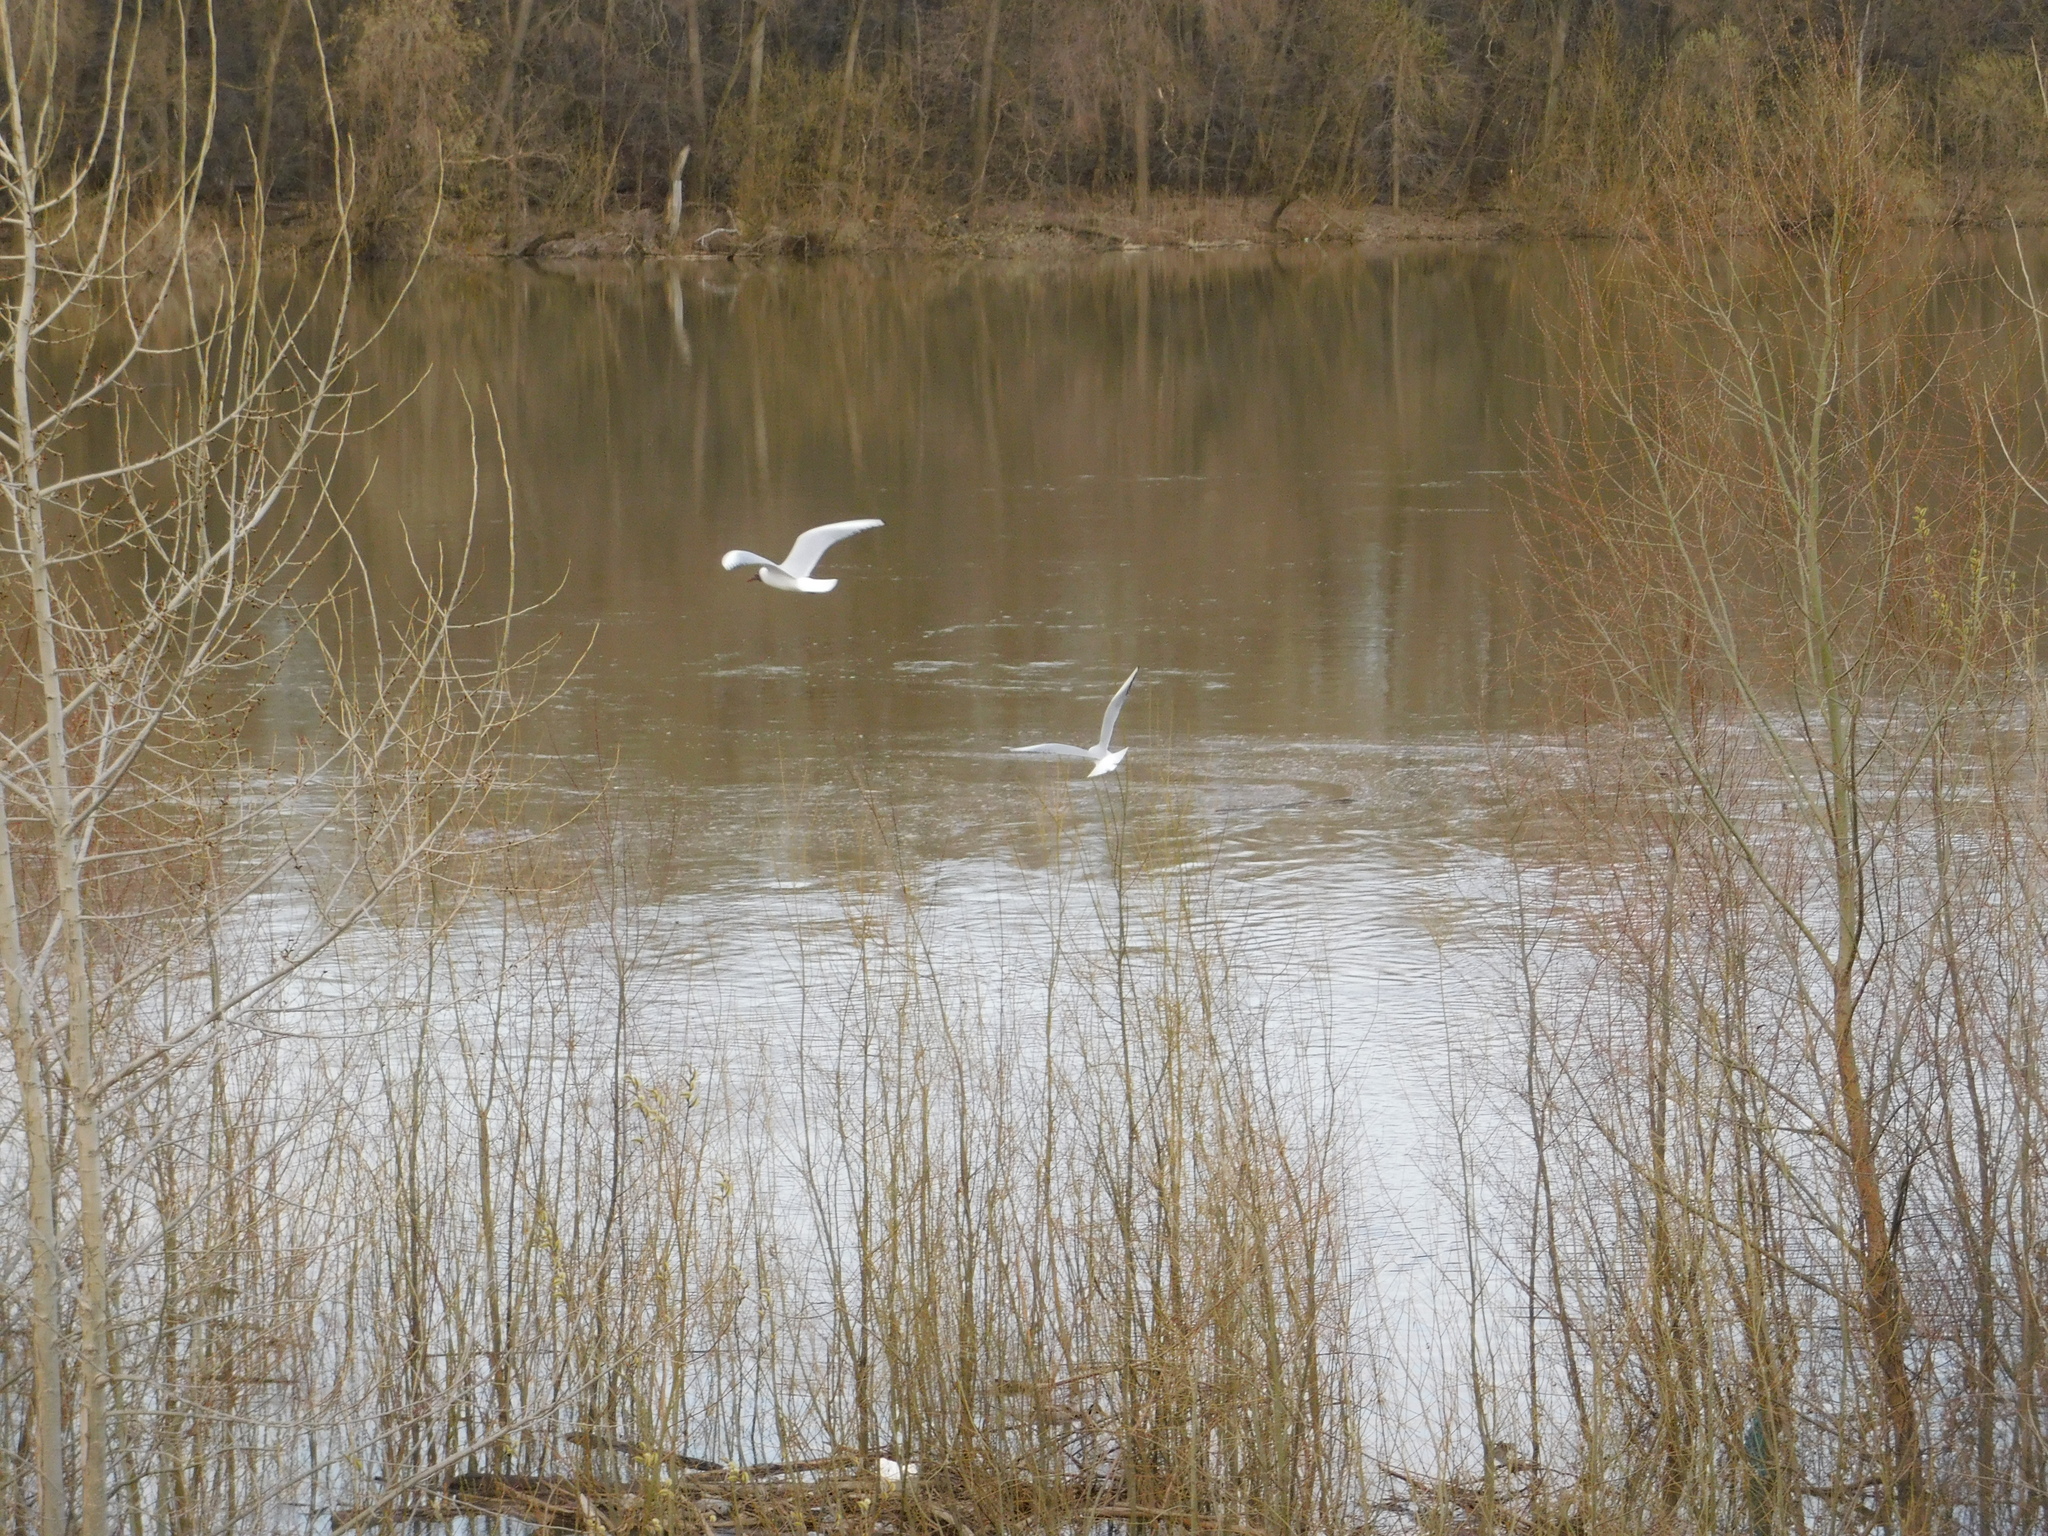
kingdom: Animalia
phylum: Chordata
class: Aves
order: Charadriiformes
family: Laridae
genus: Chroicocephalus
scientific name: Chroicocephalus ridibundus
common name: Black-headed gull
